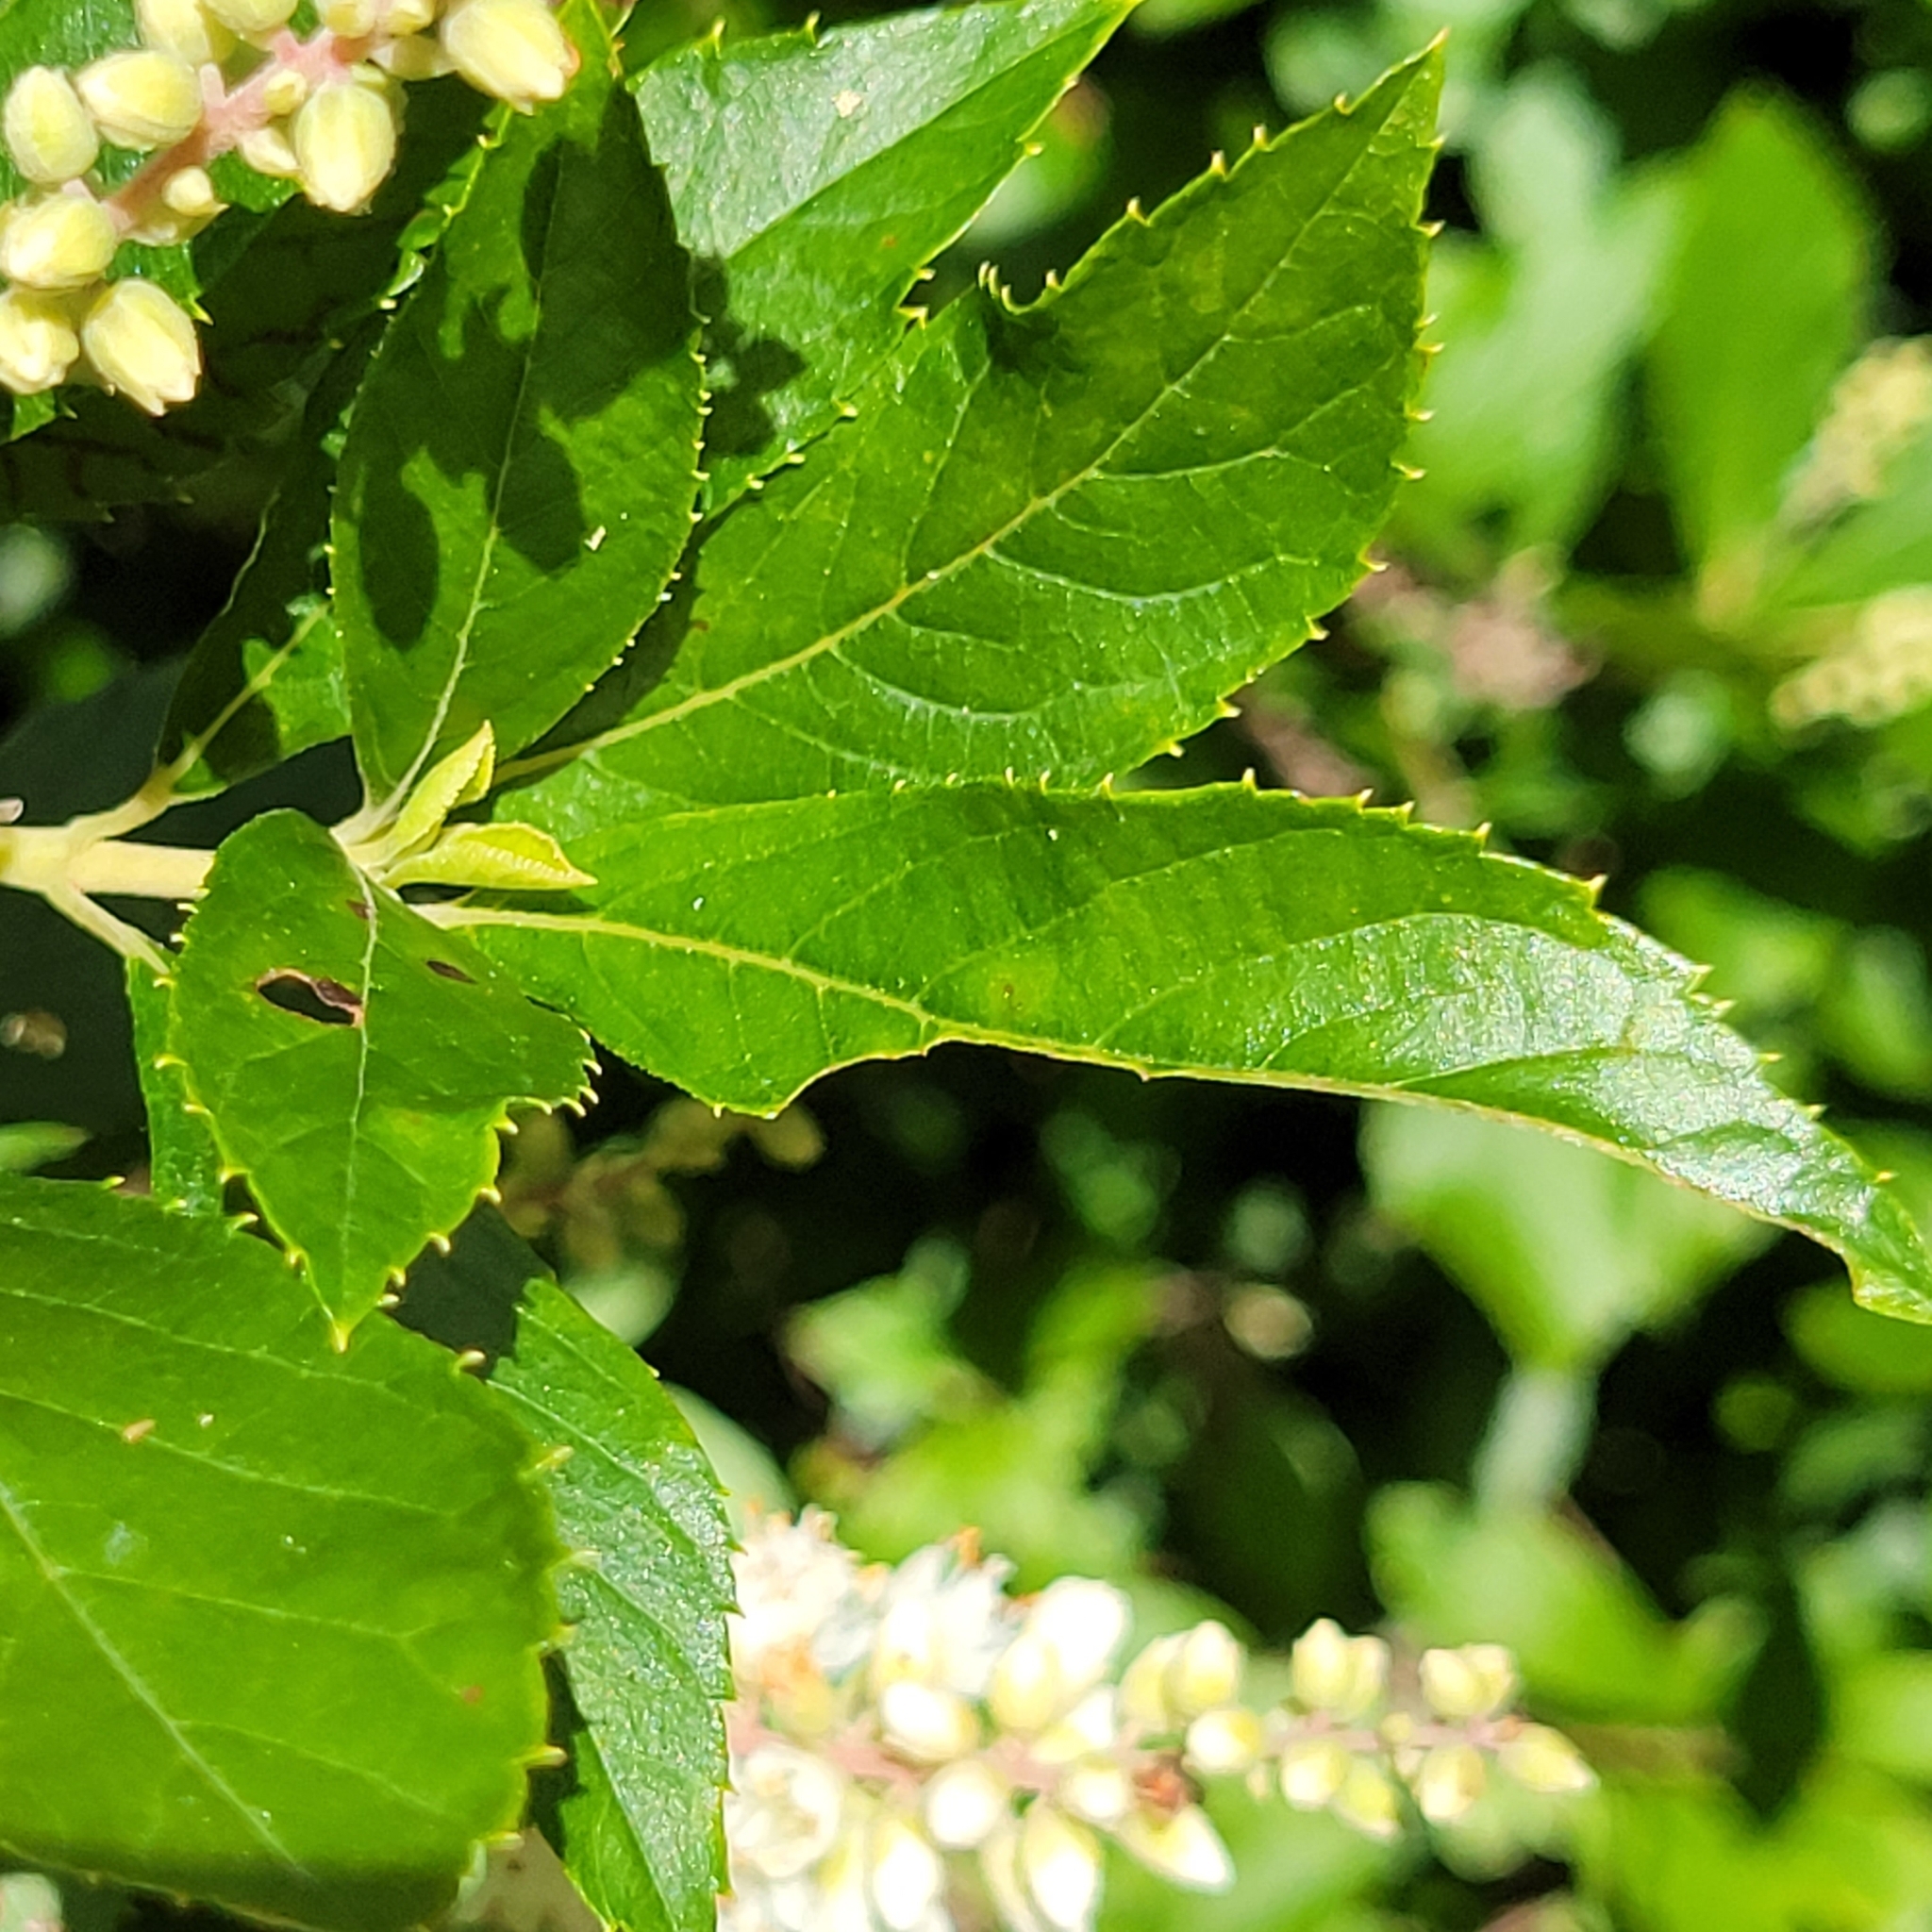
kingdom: Plantae
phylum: Tracheophyta
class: Magnoliopsida
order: Ericales
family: Clethraceae
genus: Clethra
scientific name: Clethra alnifolia
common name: Sweet pepperbush
